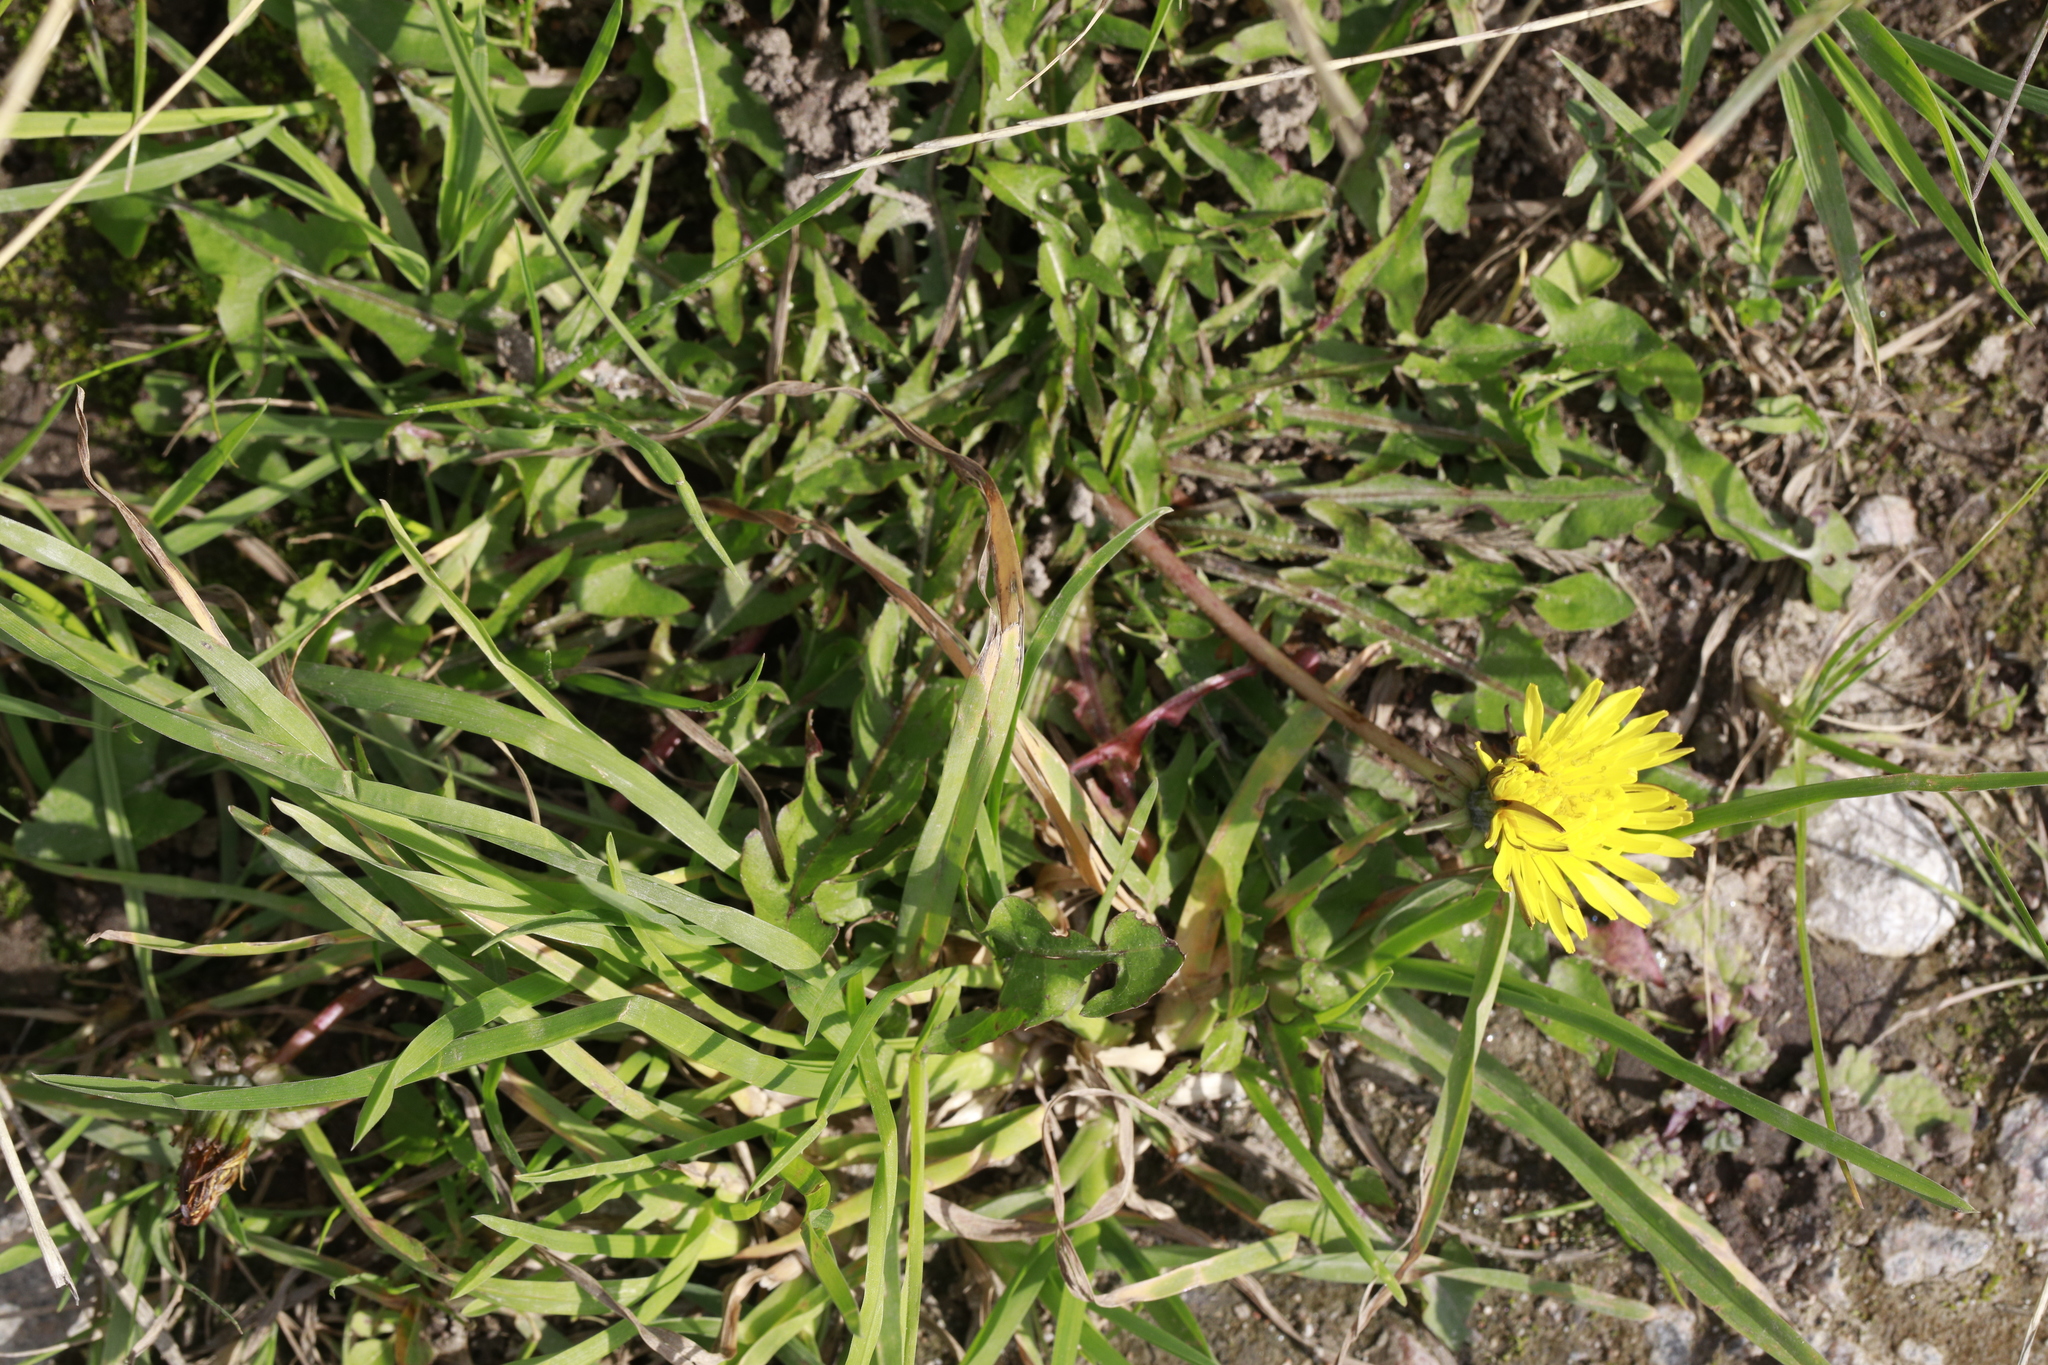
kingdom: Plantae
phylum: Tracheophyta
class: Magnoliopsida
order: Asterales
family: Asteraceae
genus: Taraxacum
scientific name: Taraxacum officinale
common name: Common dandelion
